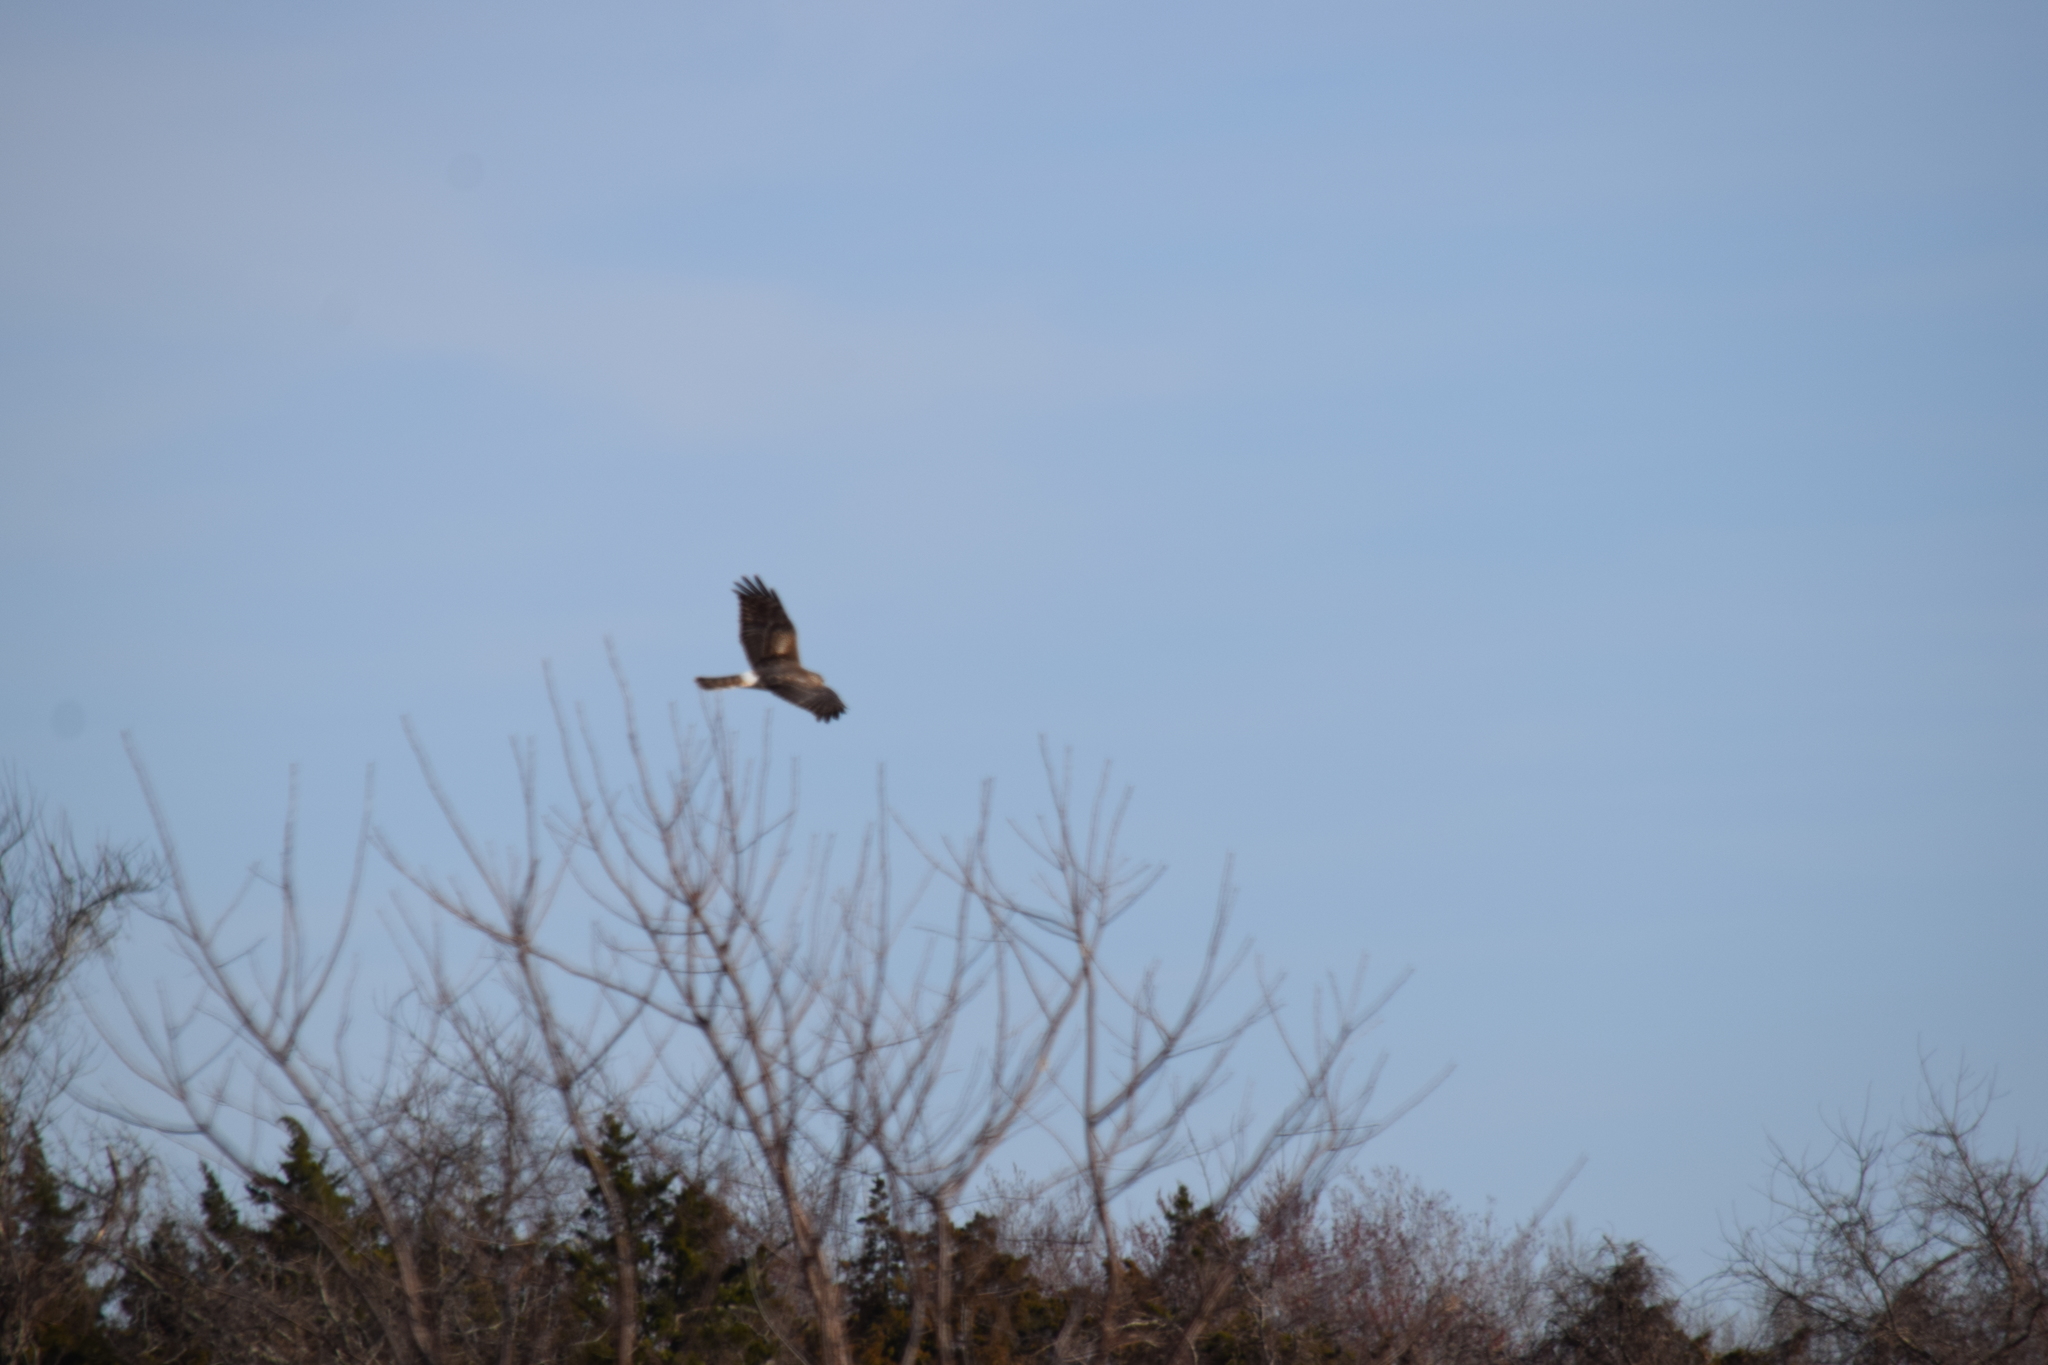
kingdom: Animalia
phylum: Chordata
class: Aves
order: Accipitriformes
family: Accipitridae
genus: Circus
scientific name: Circus cyaneus
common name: Hen harrier
